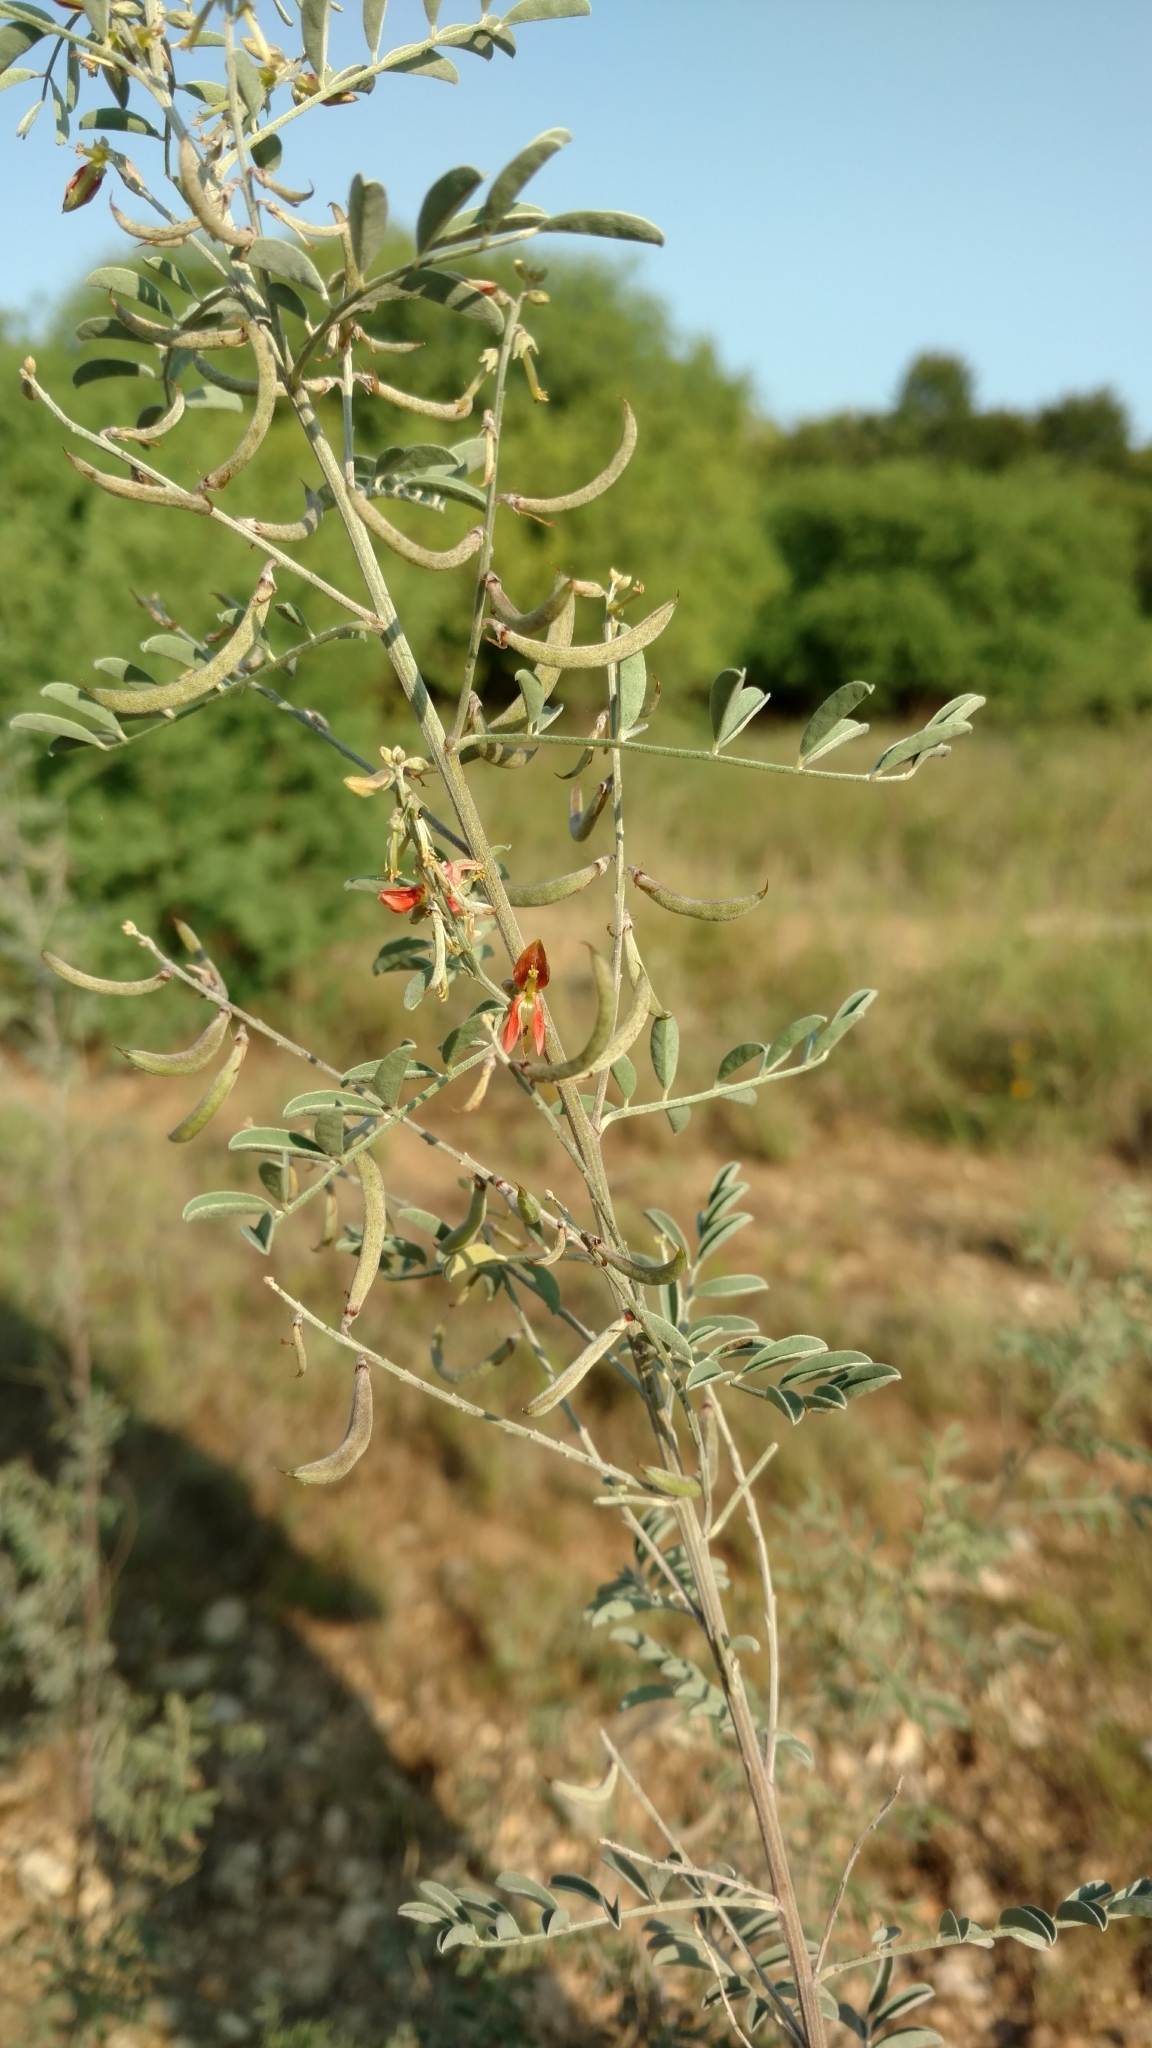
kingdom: Plantae
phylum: Tracheophyta
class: Magnoliopsida
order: Fabales
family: Fabaceae
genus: Indigofera
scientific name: Indigofera lindheimeriana
